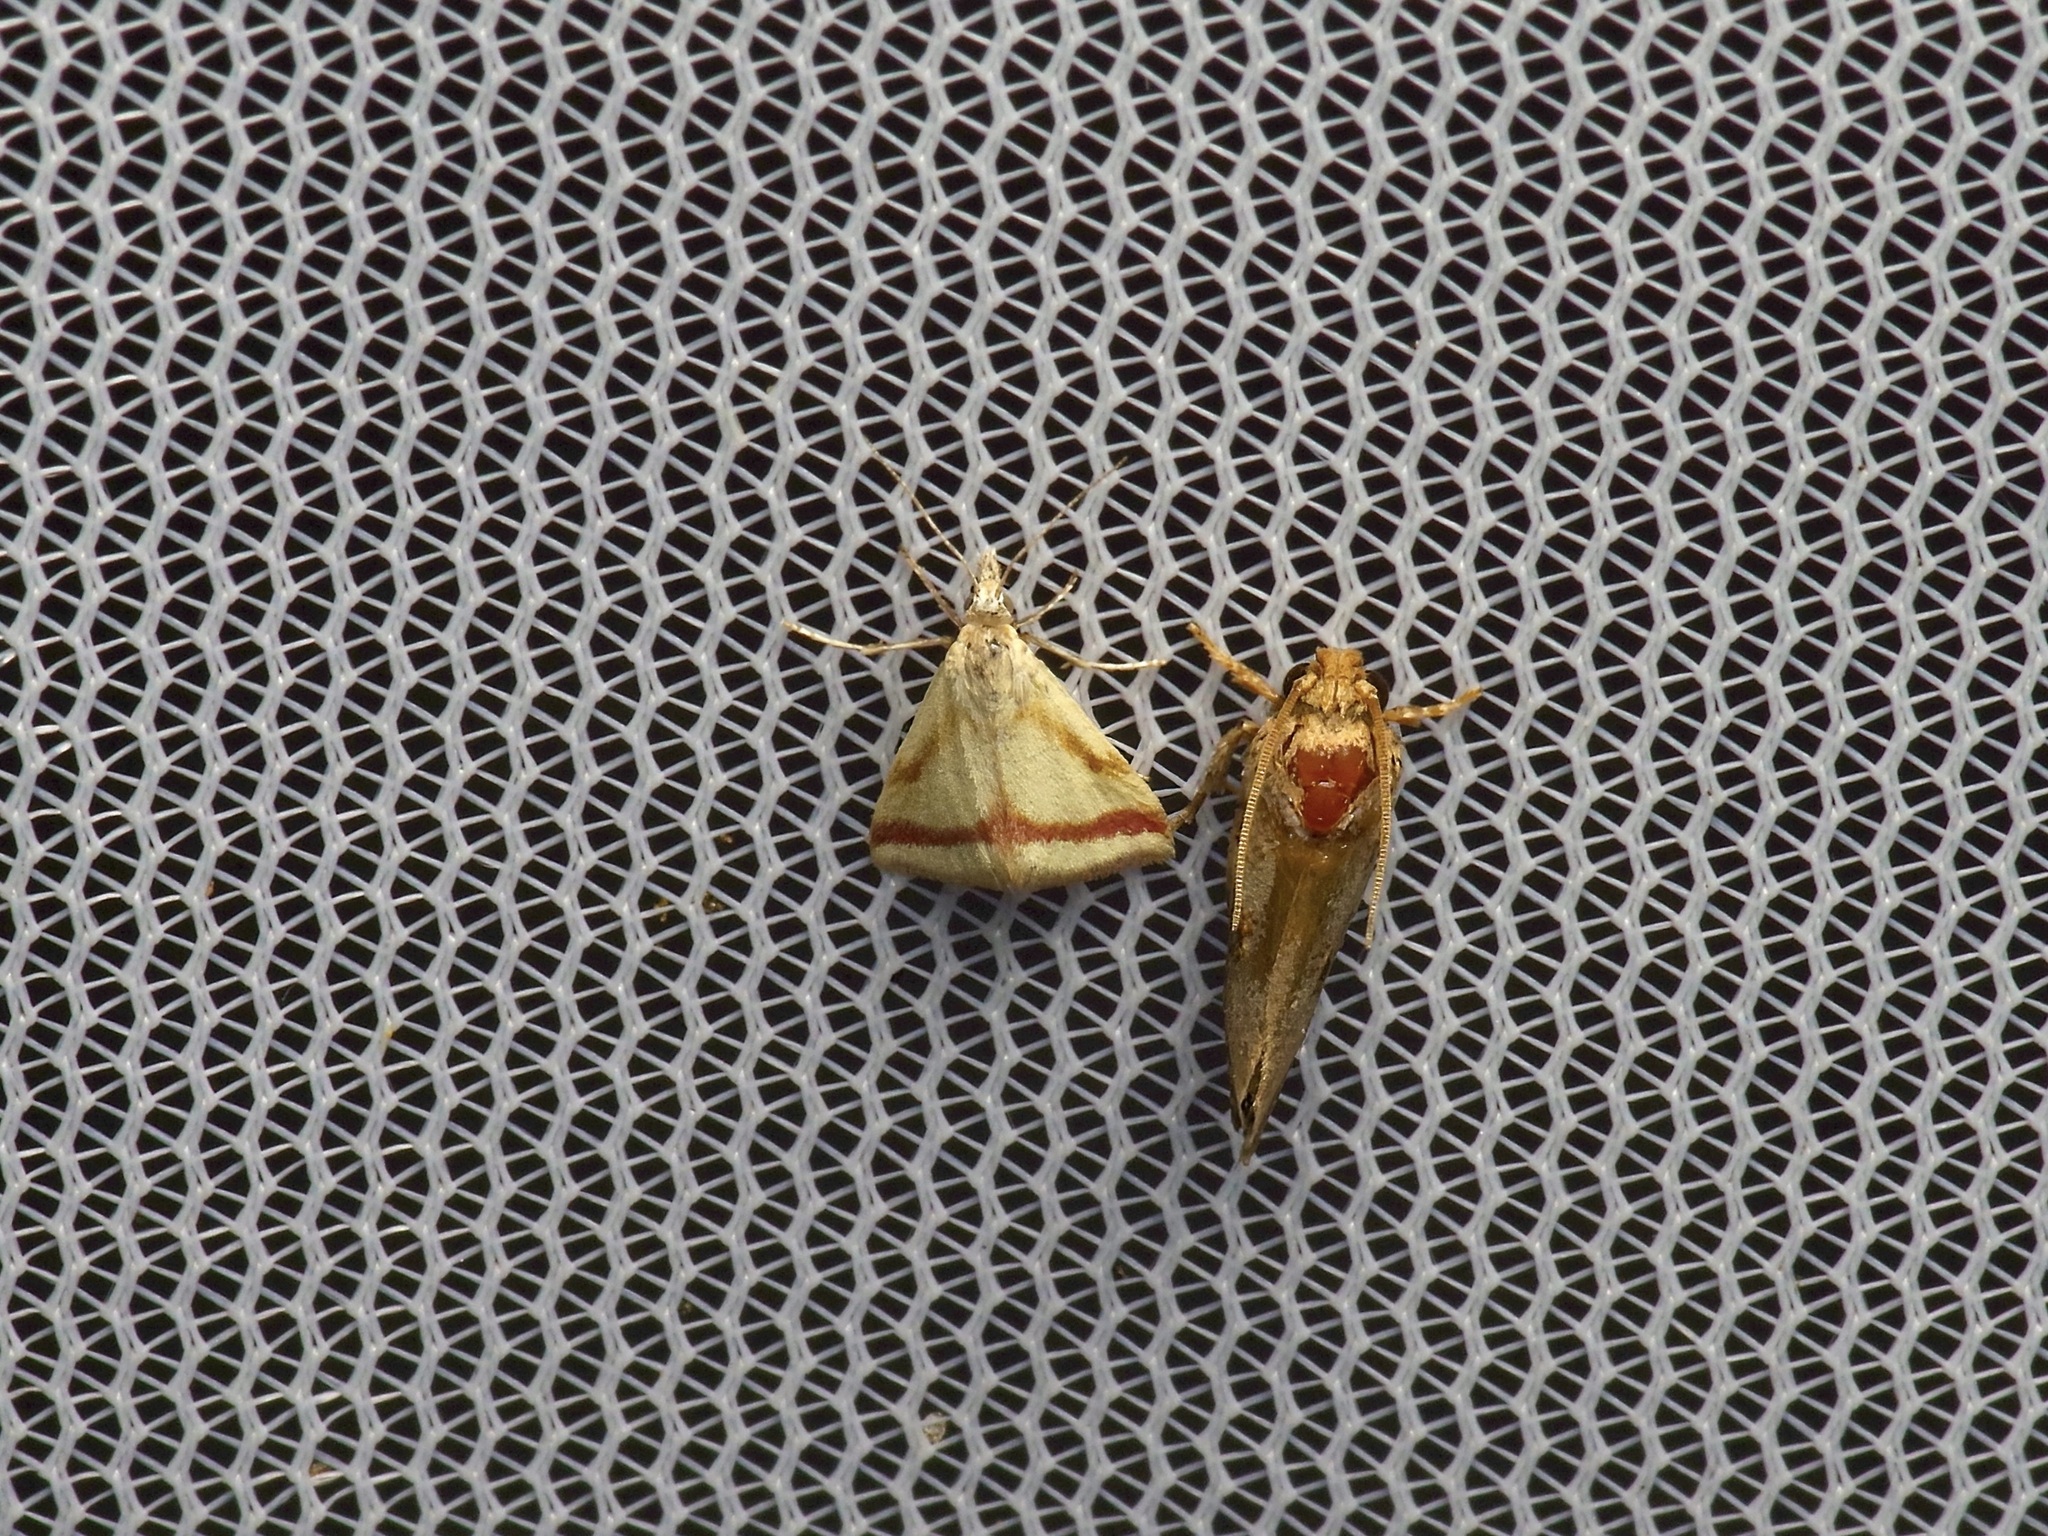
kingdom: Animalia
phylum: Arthropoda
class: Insecta
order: Lepidoptera
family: Crambidae
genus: Microtheoris
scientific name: Microtheoris vibicalis
